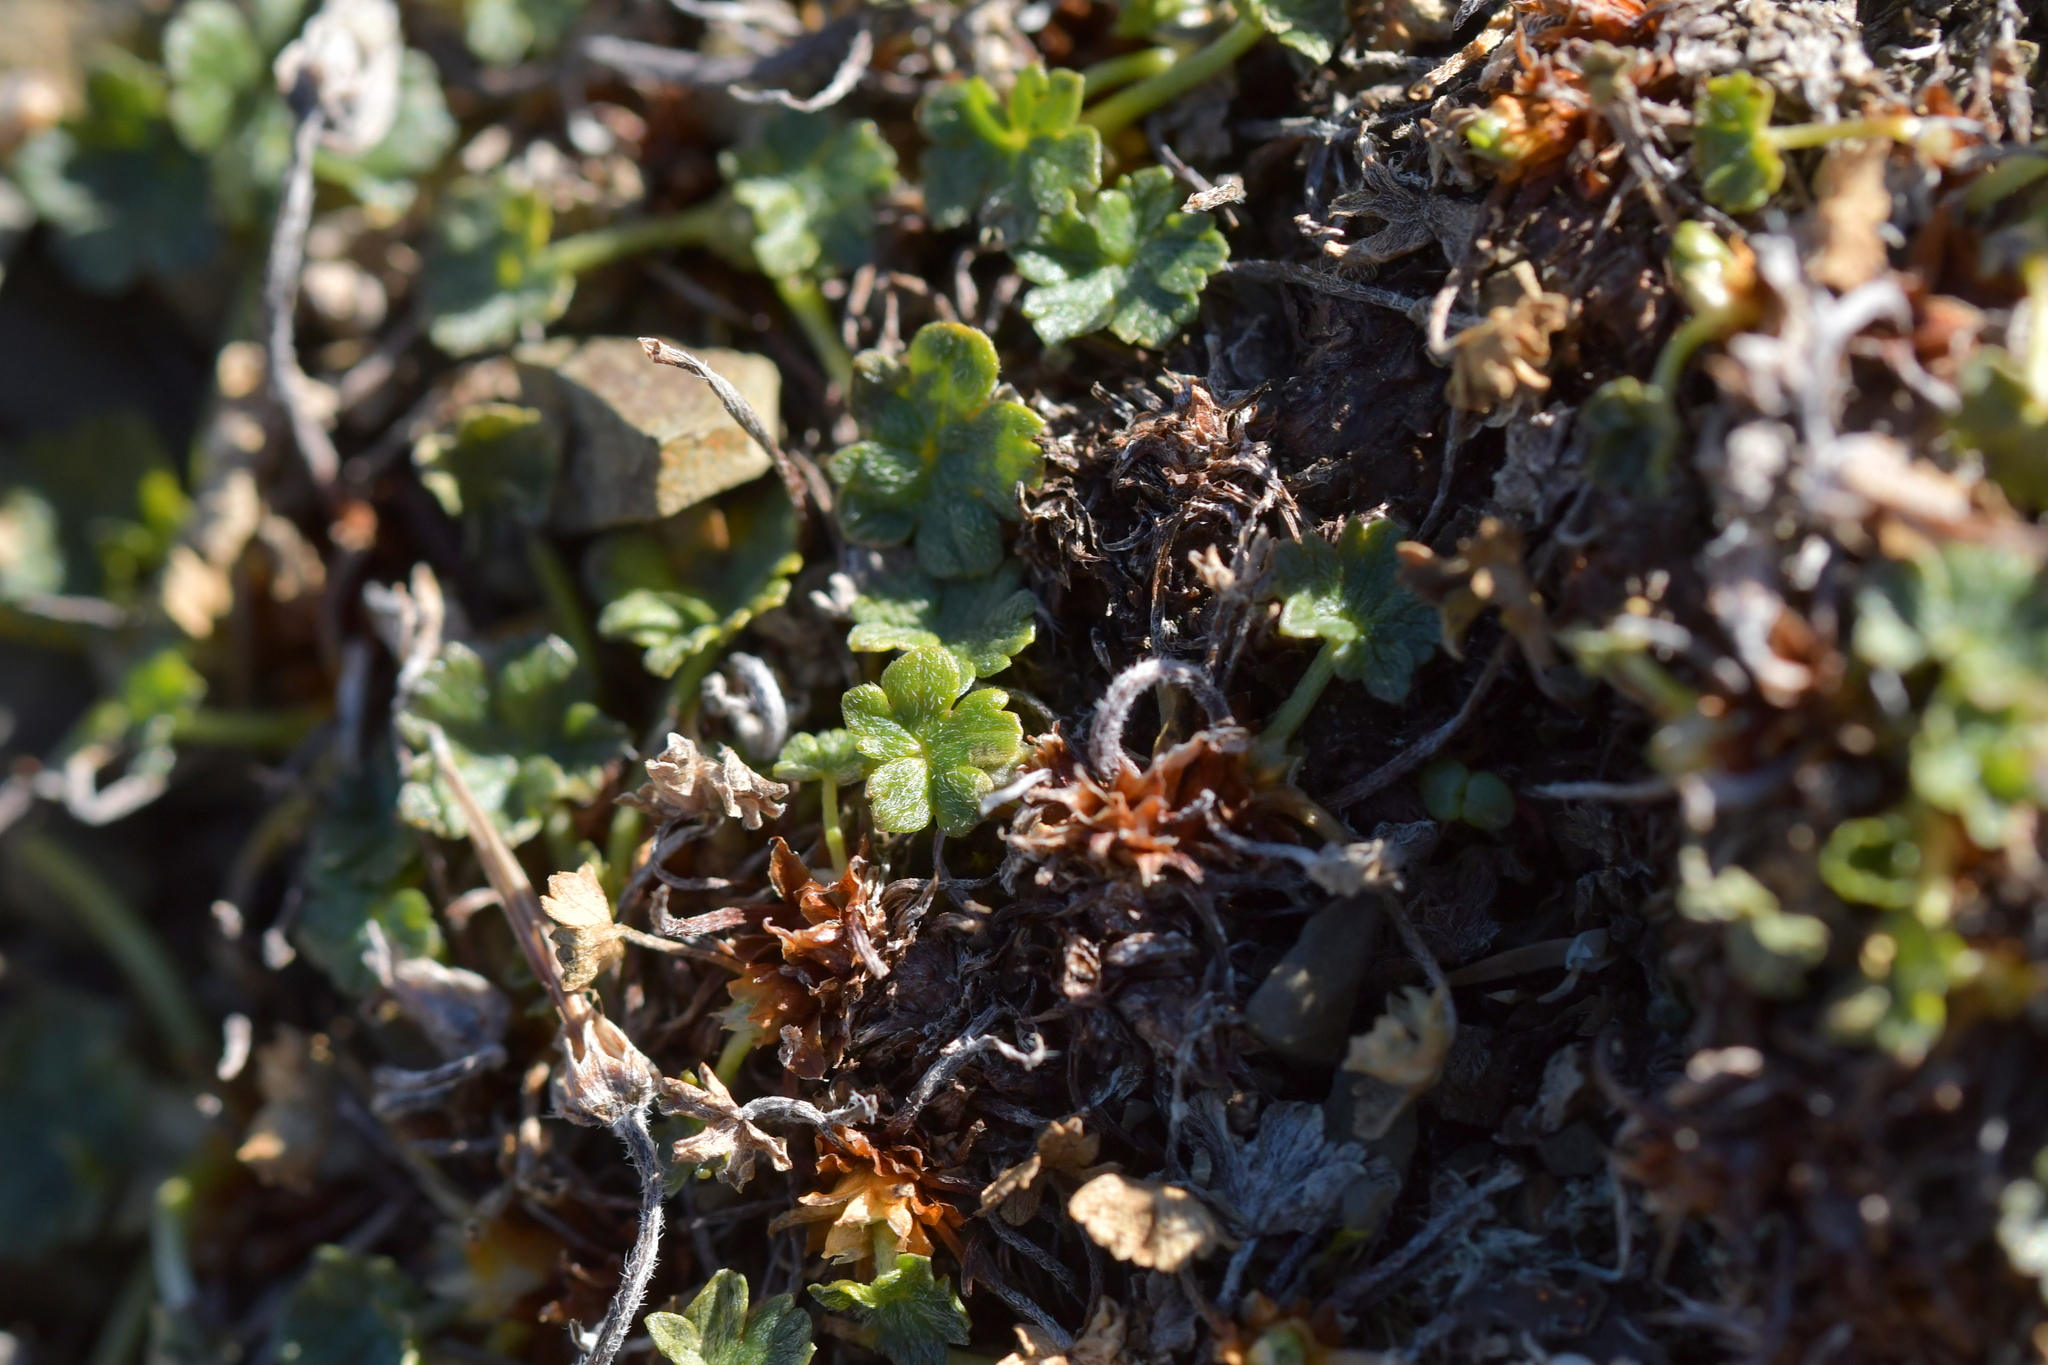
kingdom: Plantae
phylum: Tracheophyta
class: Magnoliopsida
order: Geraniales
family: Geraniaceae
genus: Geranium
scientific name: Geranium brevicaule
